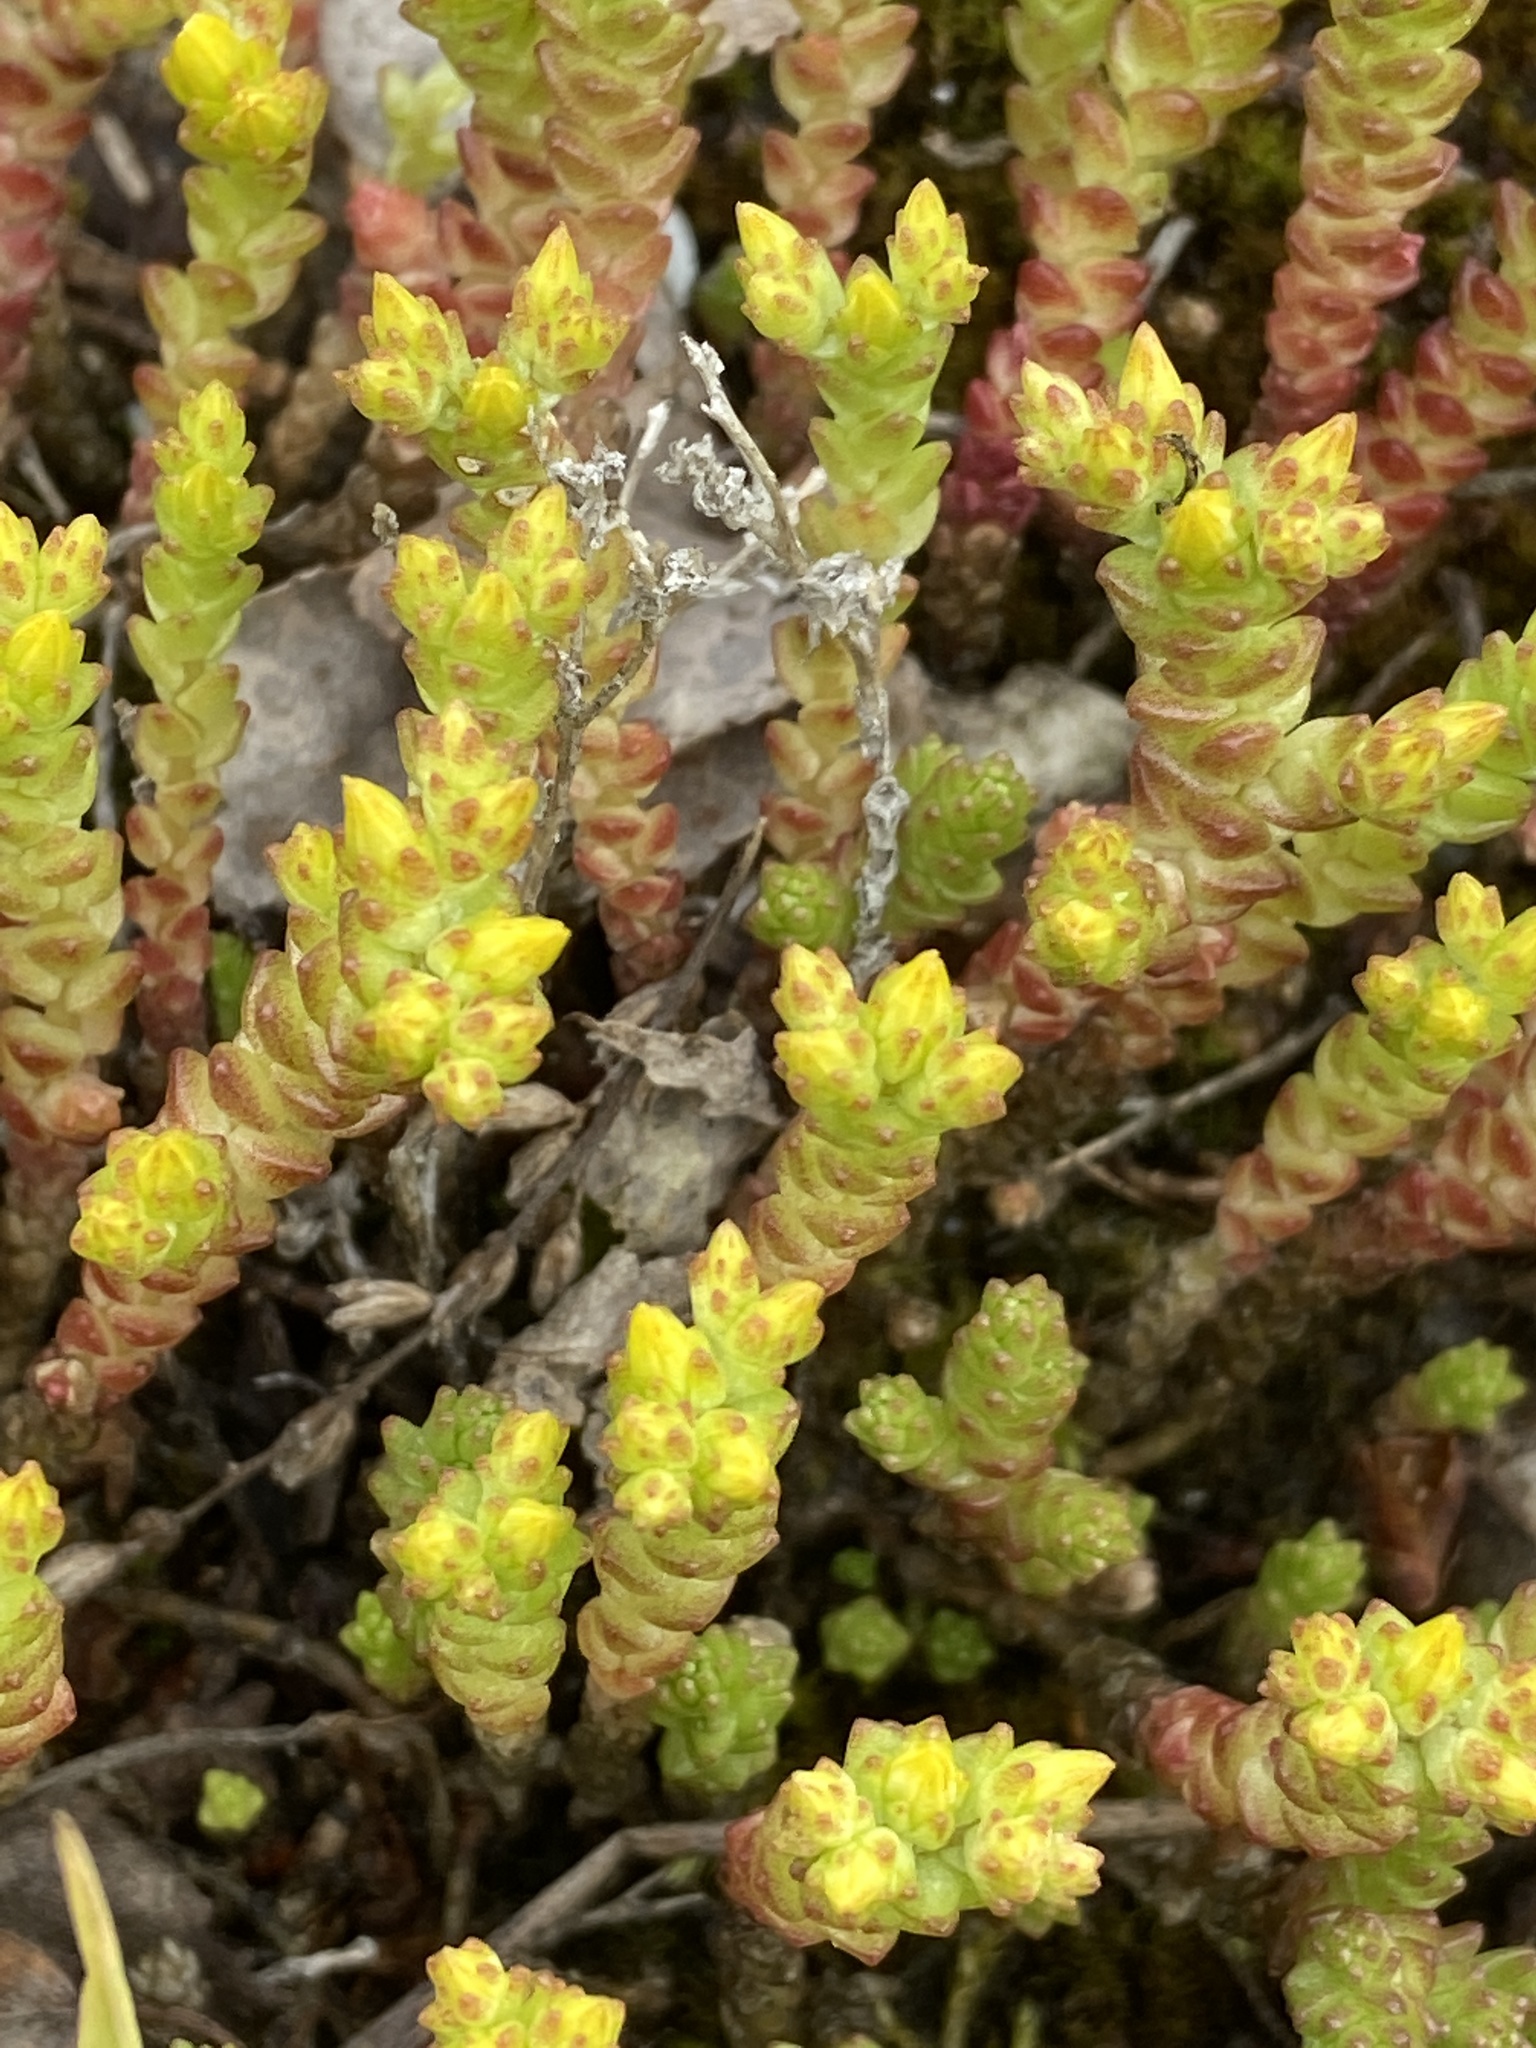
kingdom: Plantae
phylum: Tracheophyta
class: Magnoliopsida
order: Saxifragales
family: Crassulaceae
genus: Sedum
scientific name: Sedum acre
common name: Biting stonecrop
